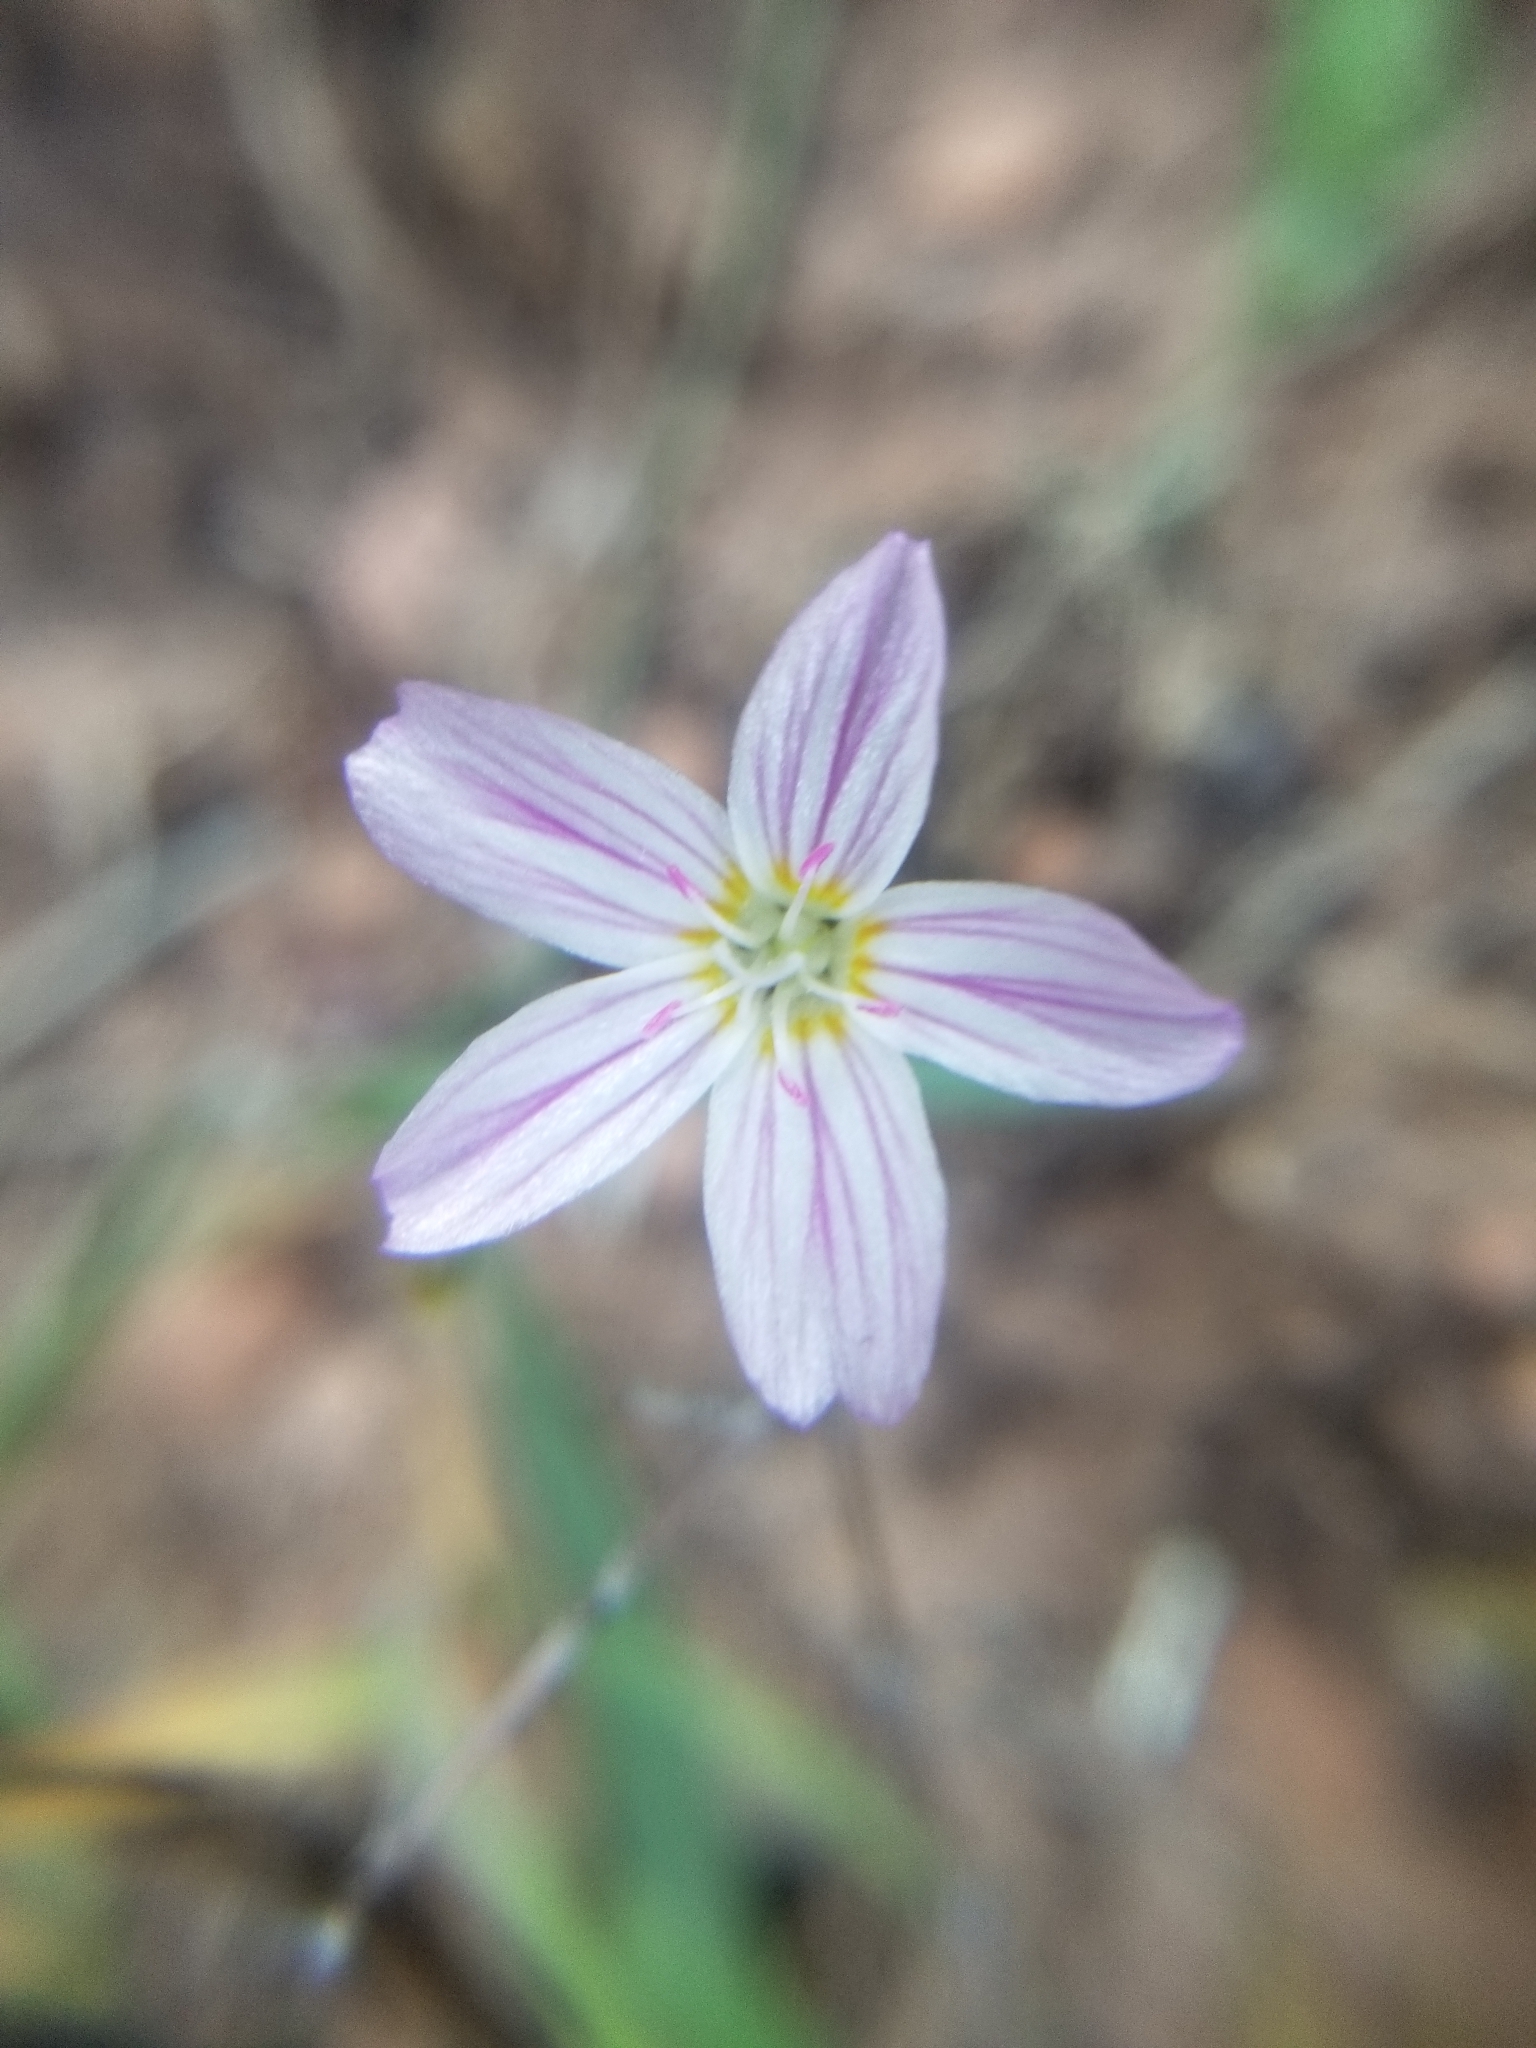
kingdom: Plantae
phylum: Tracheophyta
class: Magnoliopsida
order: Caryophyllales
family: Montiaceae
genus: Claytonia
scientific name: Claytonia rosea
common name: Rocky mountain spring-beauty
